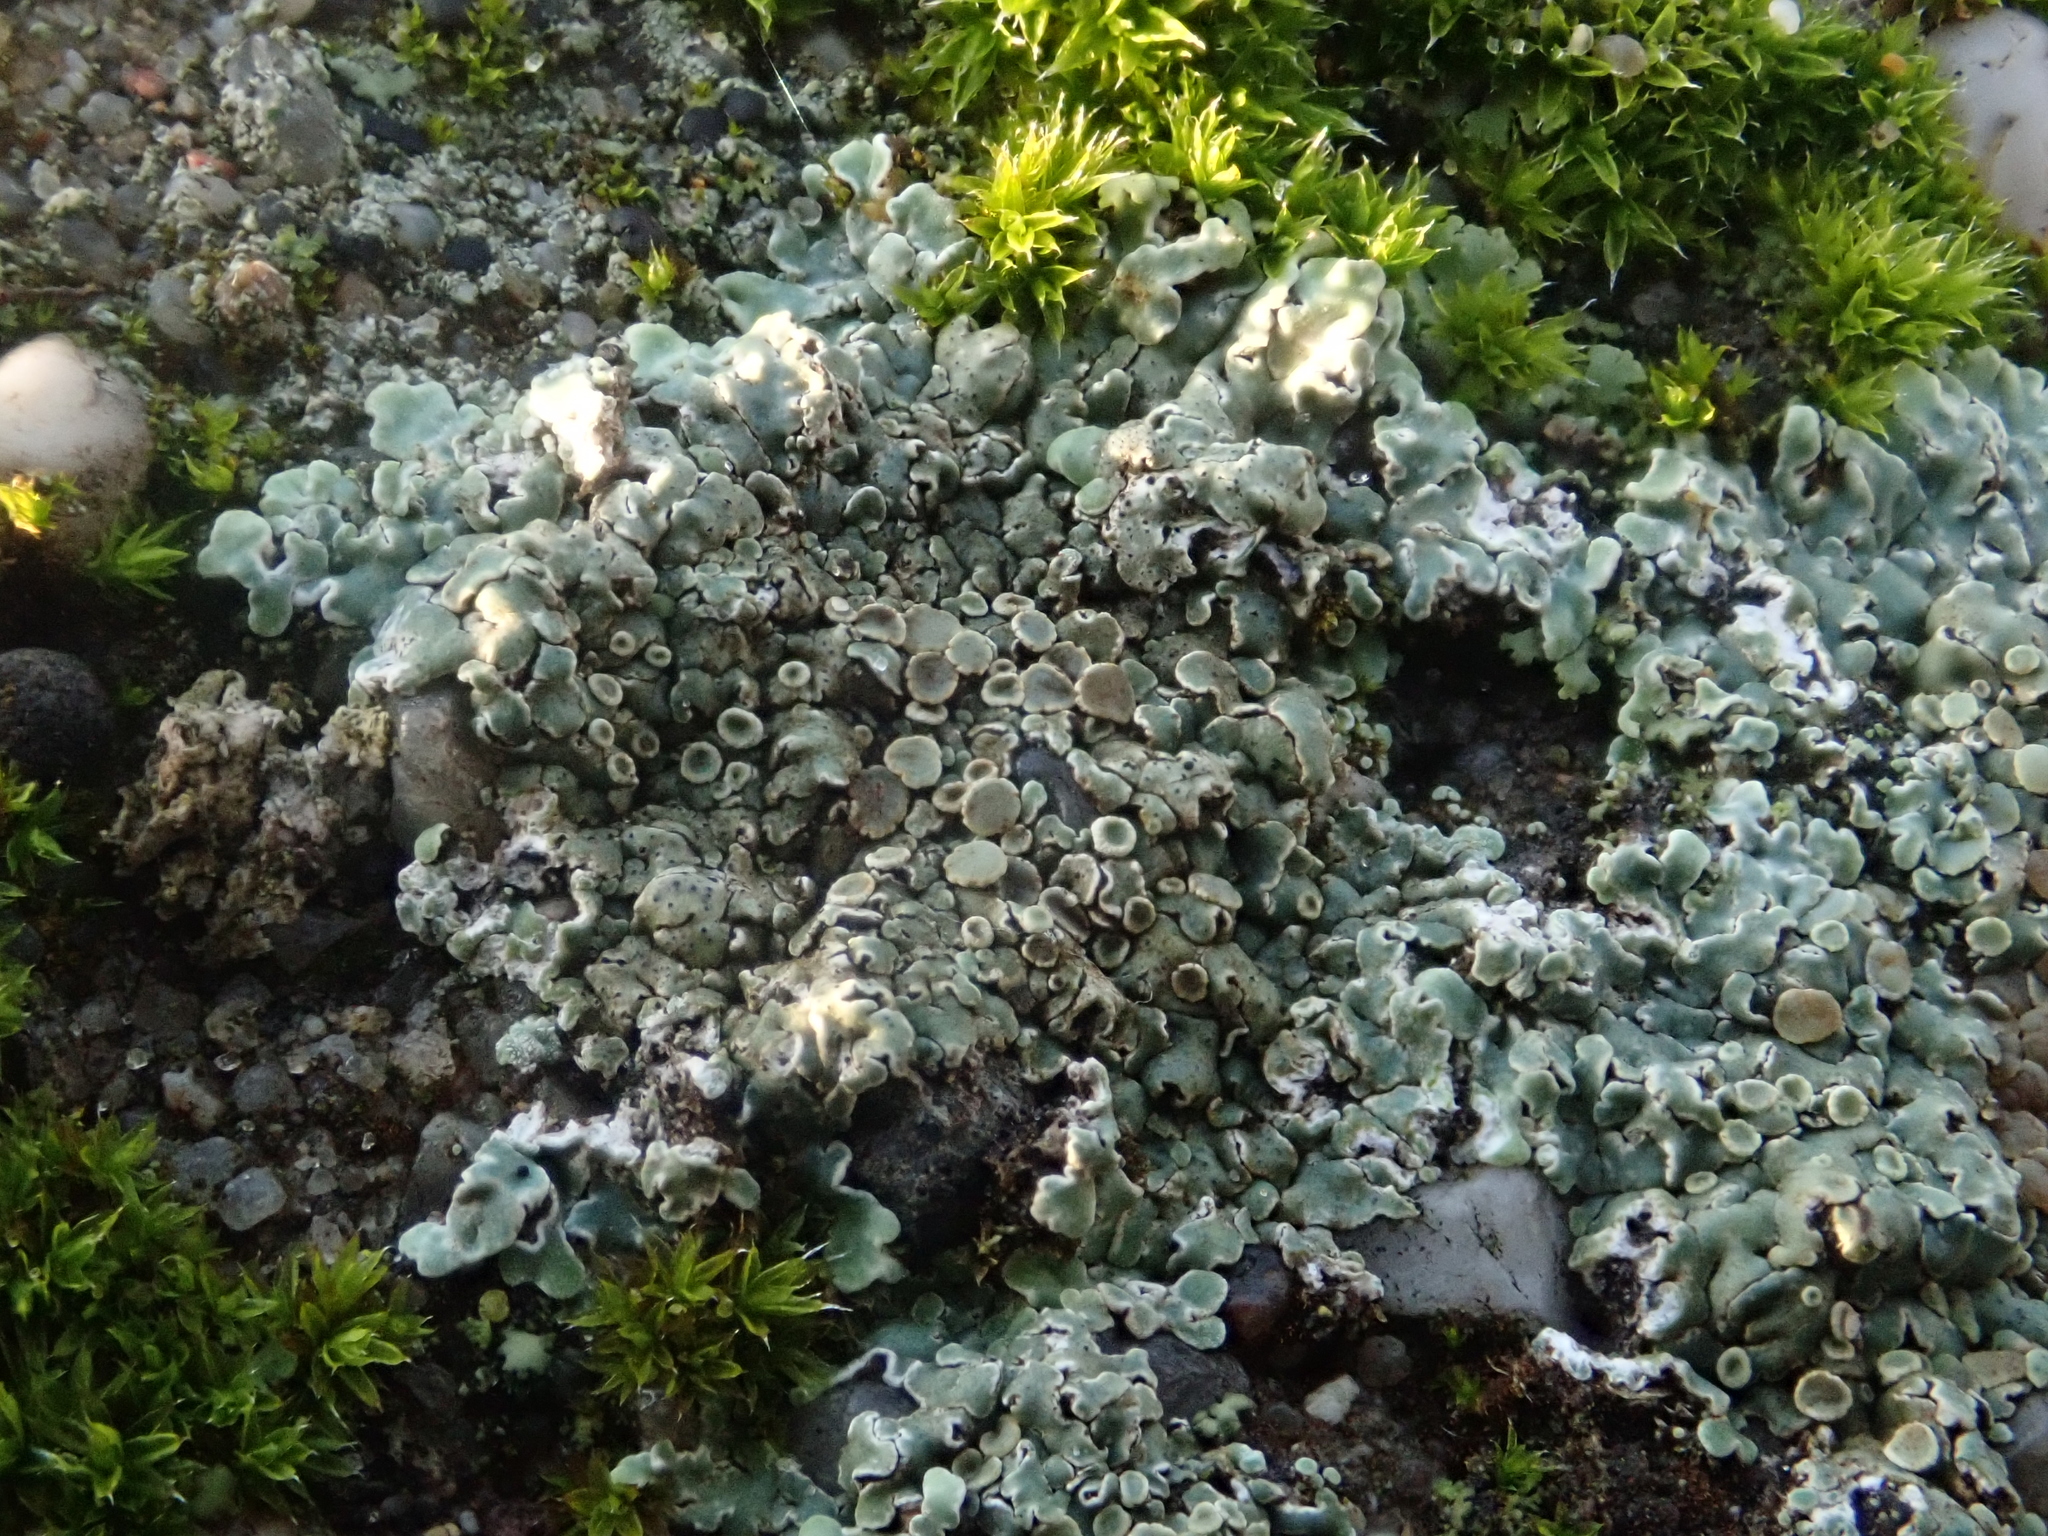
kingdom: Fungi
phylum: Ascomycota
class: Lecanoromycetes
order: Lecanorales
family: Lecanoraceae
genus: Protoparmeliopsis
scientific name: Protoparmeliopsis muralis
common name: Stonewall rim lichen
